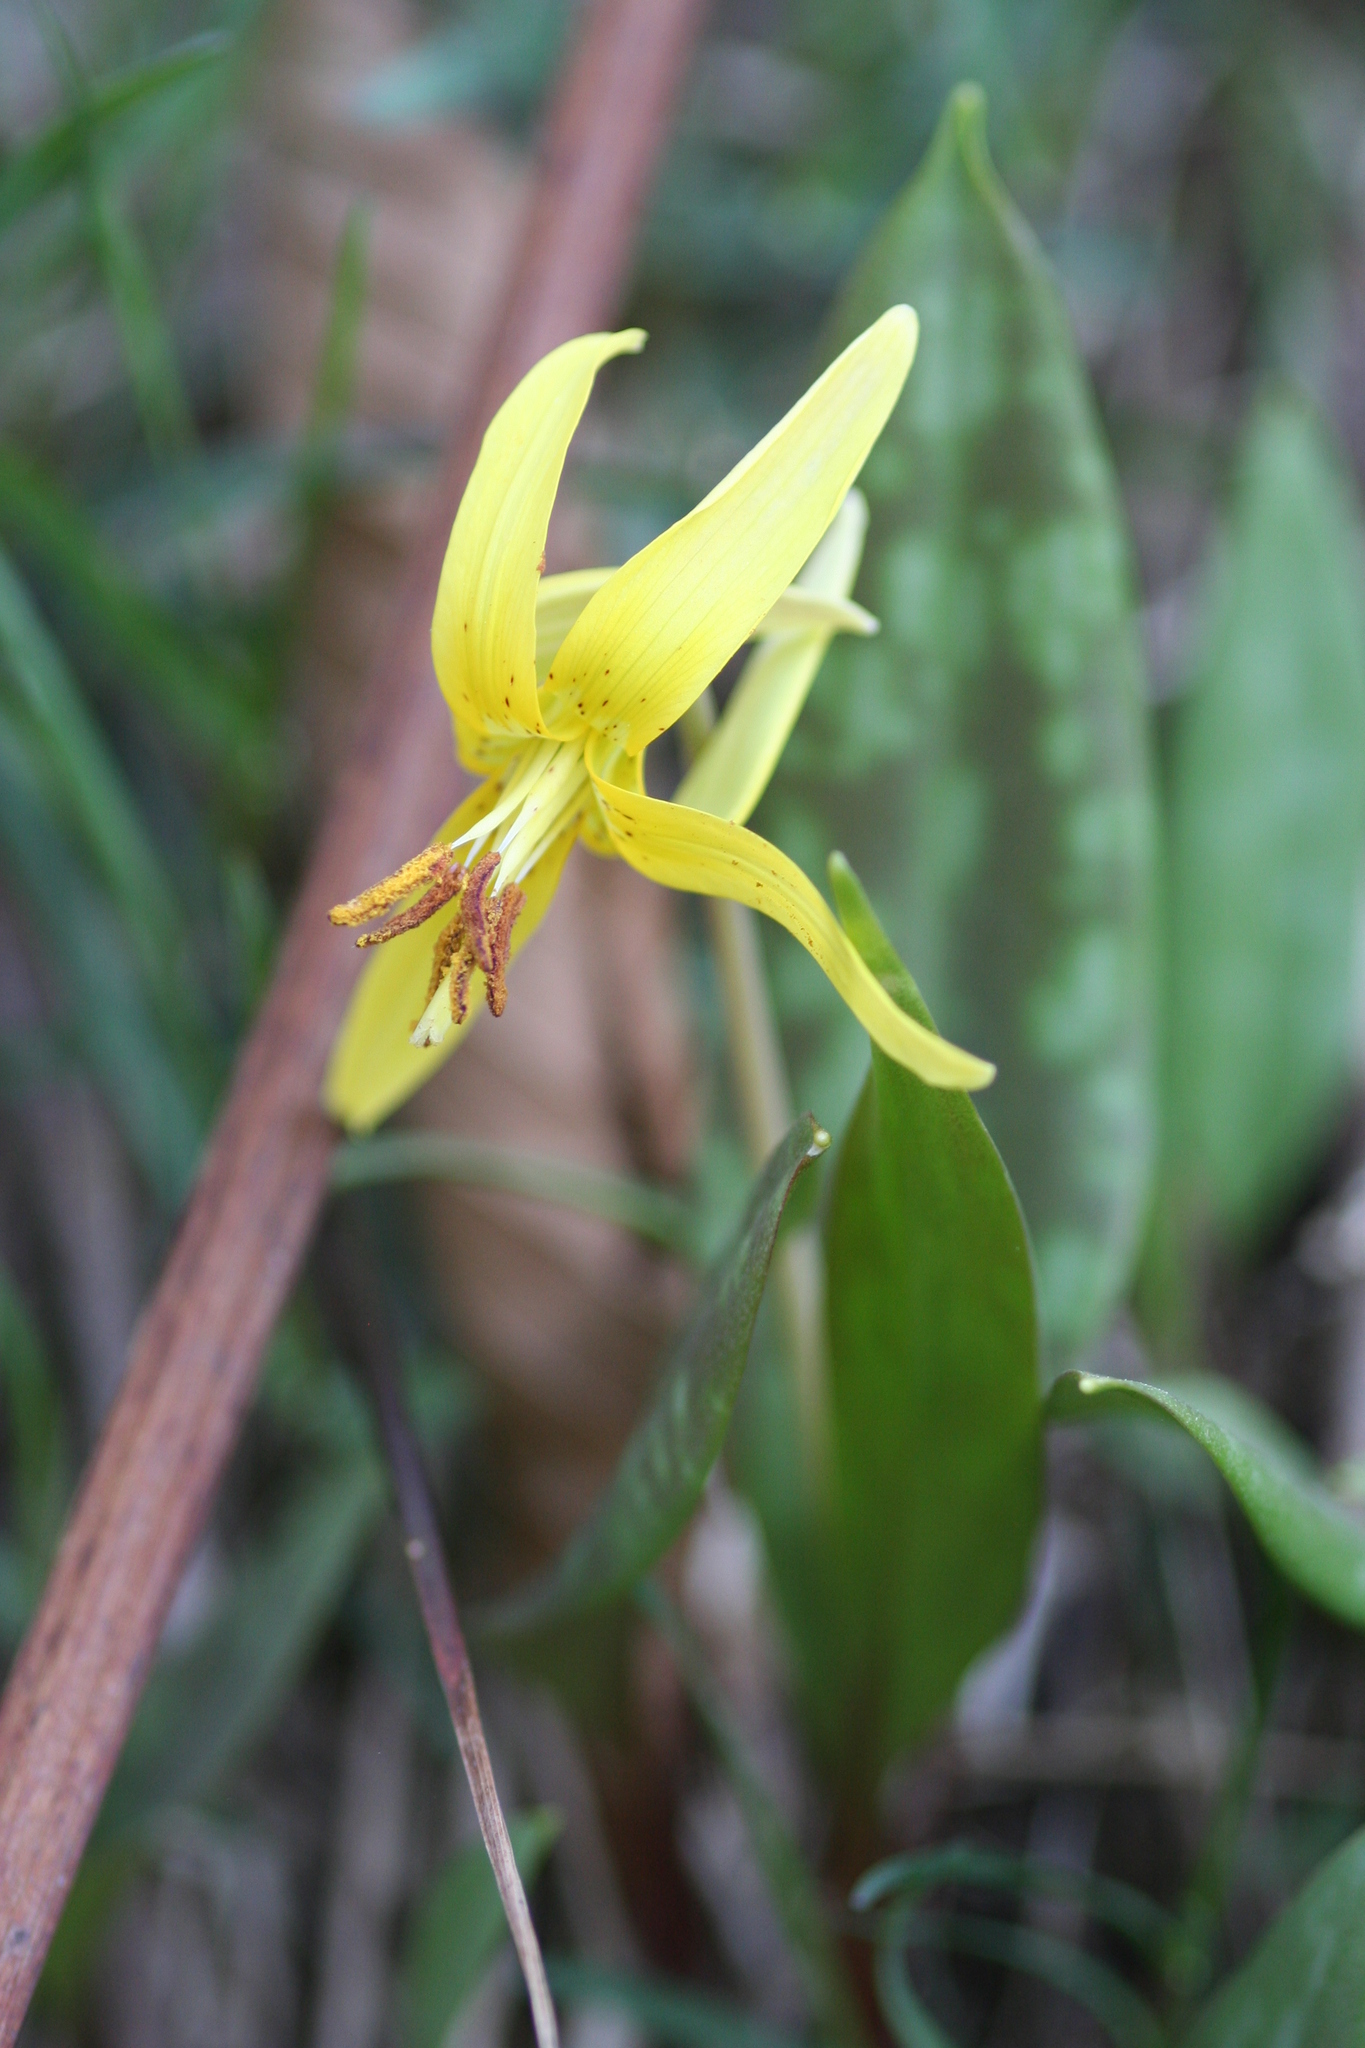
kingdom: Plantae
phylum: Tracheophyta
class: Liliopsida
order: Liliales
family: Liliaceae
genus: Erythronium
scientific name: Erythronium umbilicatum
